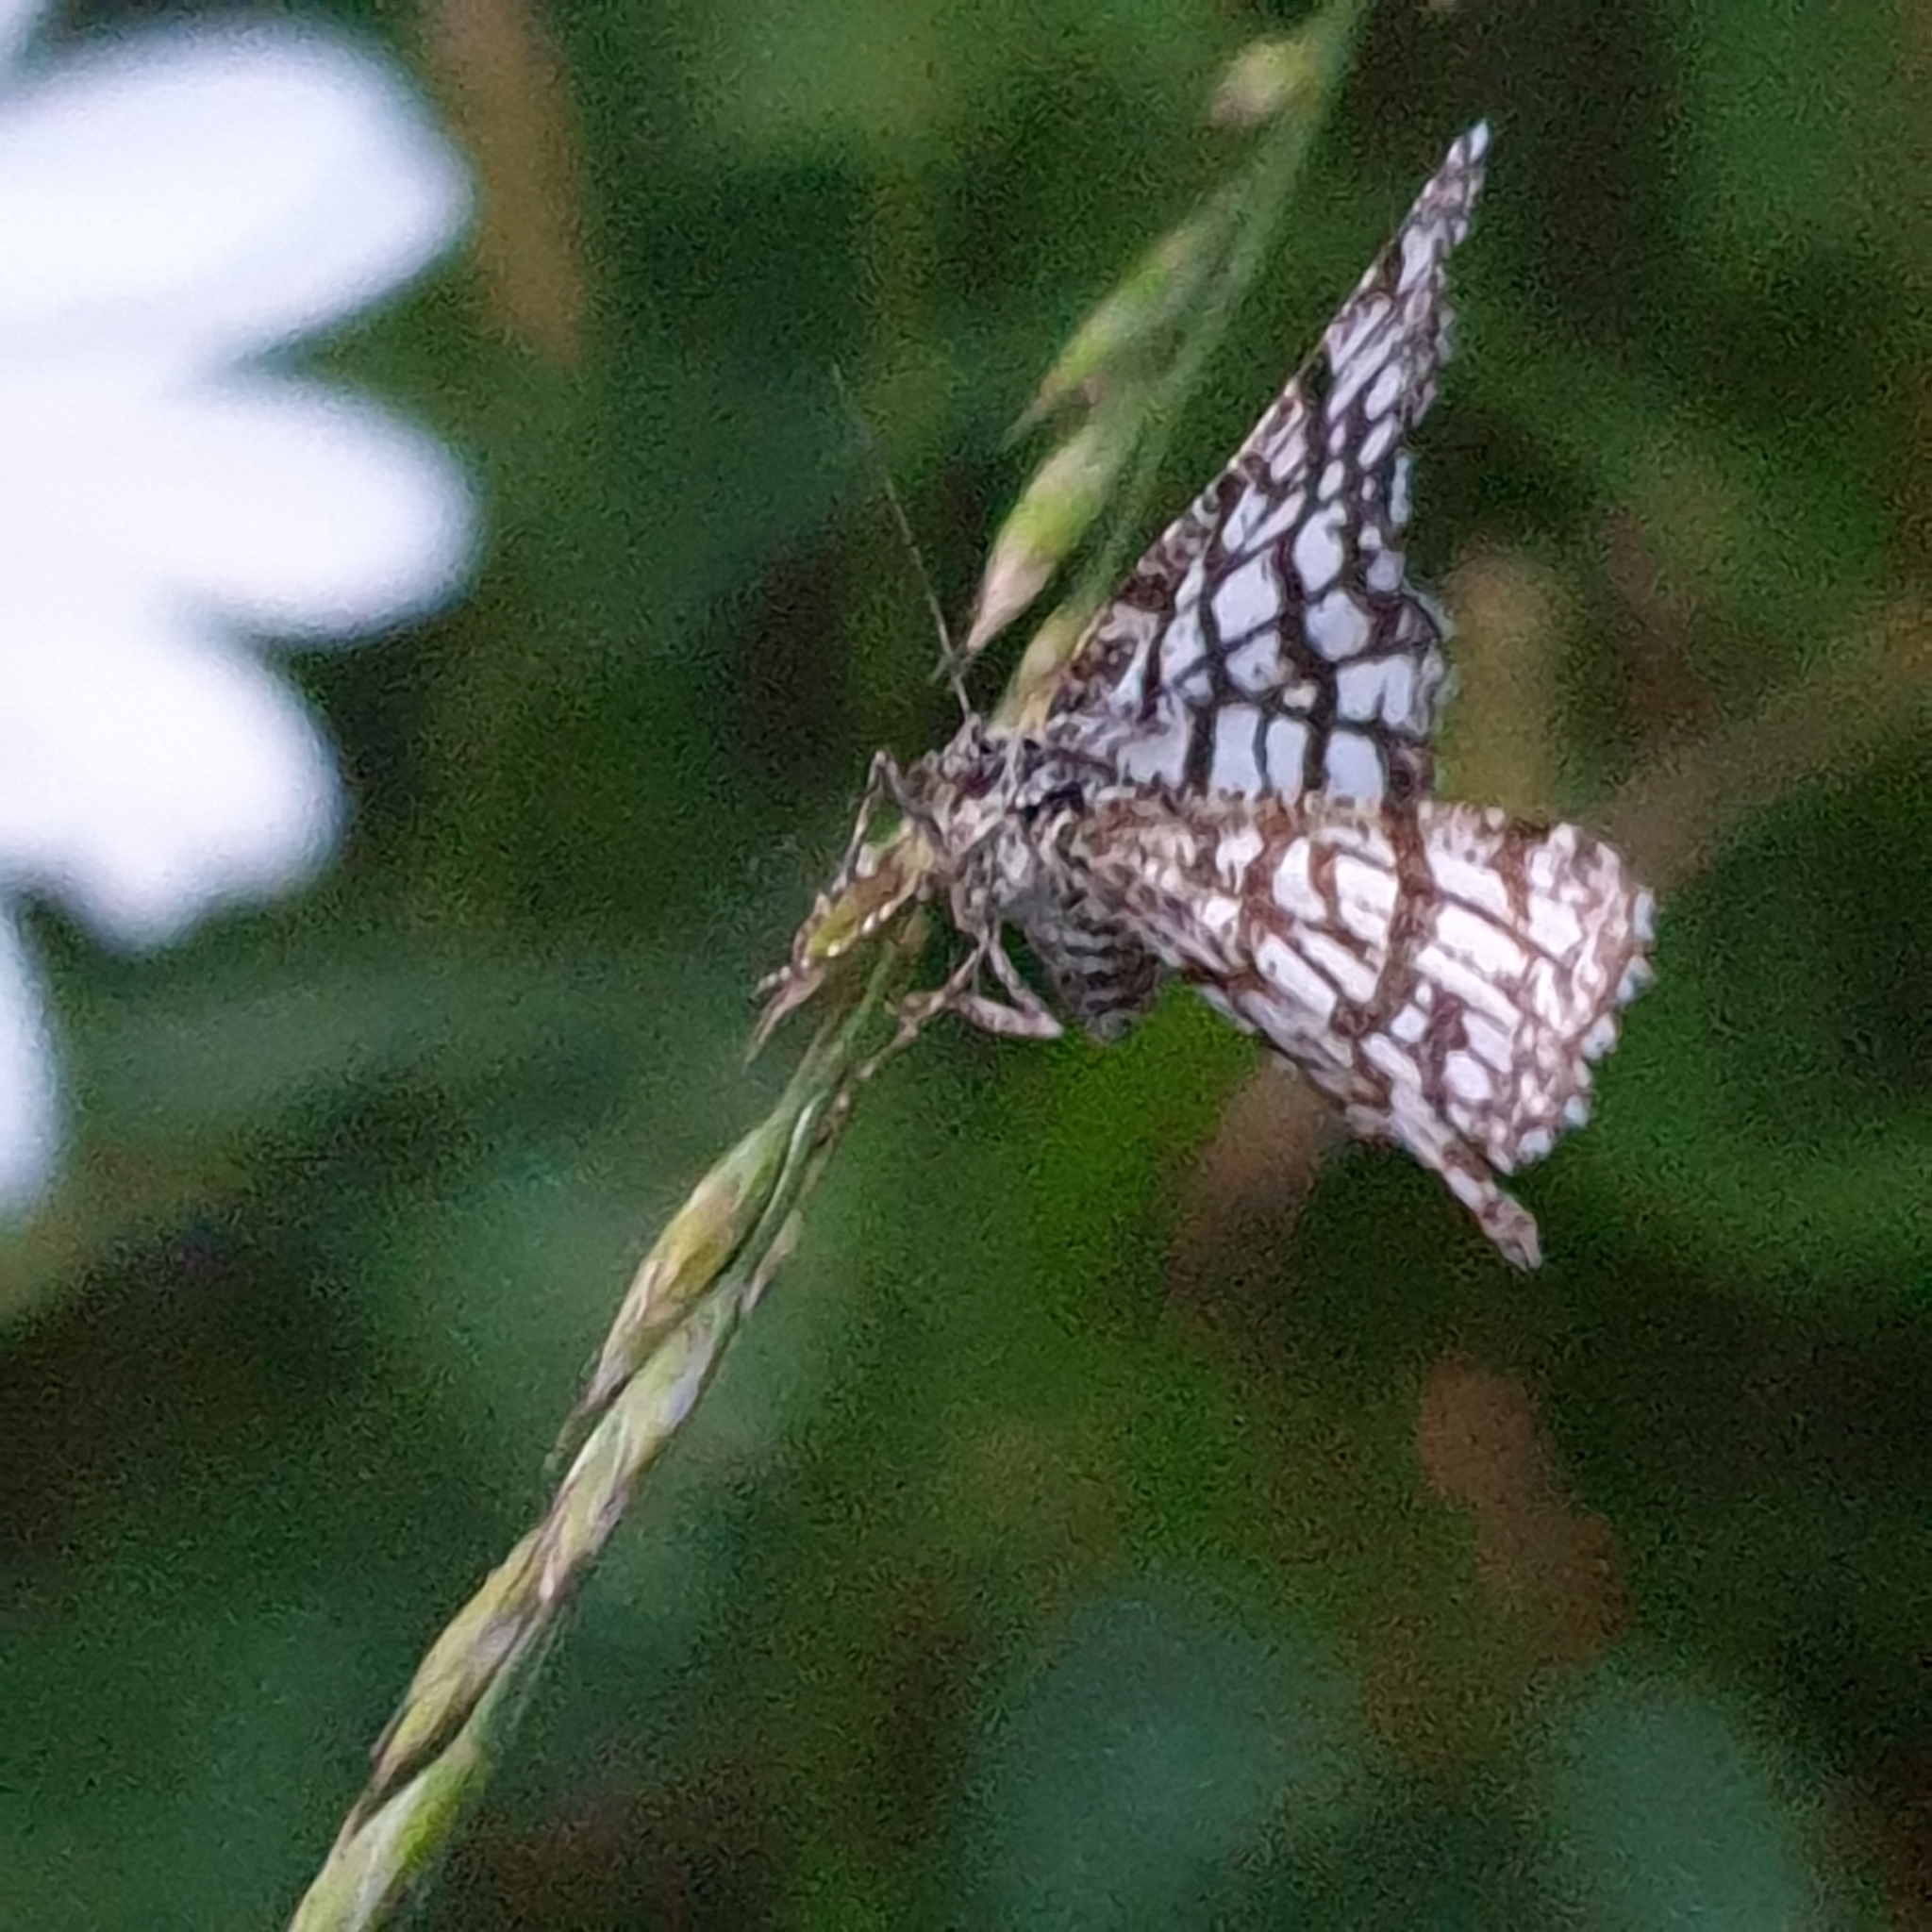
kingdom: Animalia
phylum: Arthropoda
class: Insecta
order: Lepidoptera
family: Geometridae
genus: Chiasmia
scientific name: Chiasmia clathrata
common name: Latticed heath
